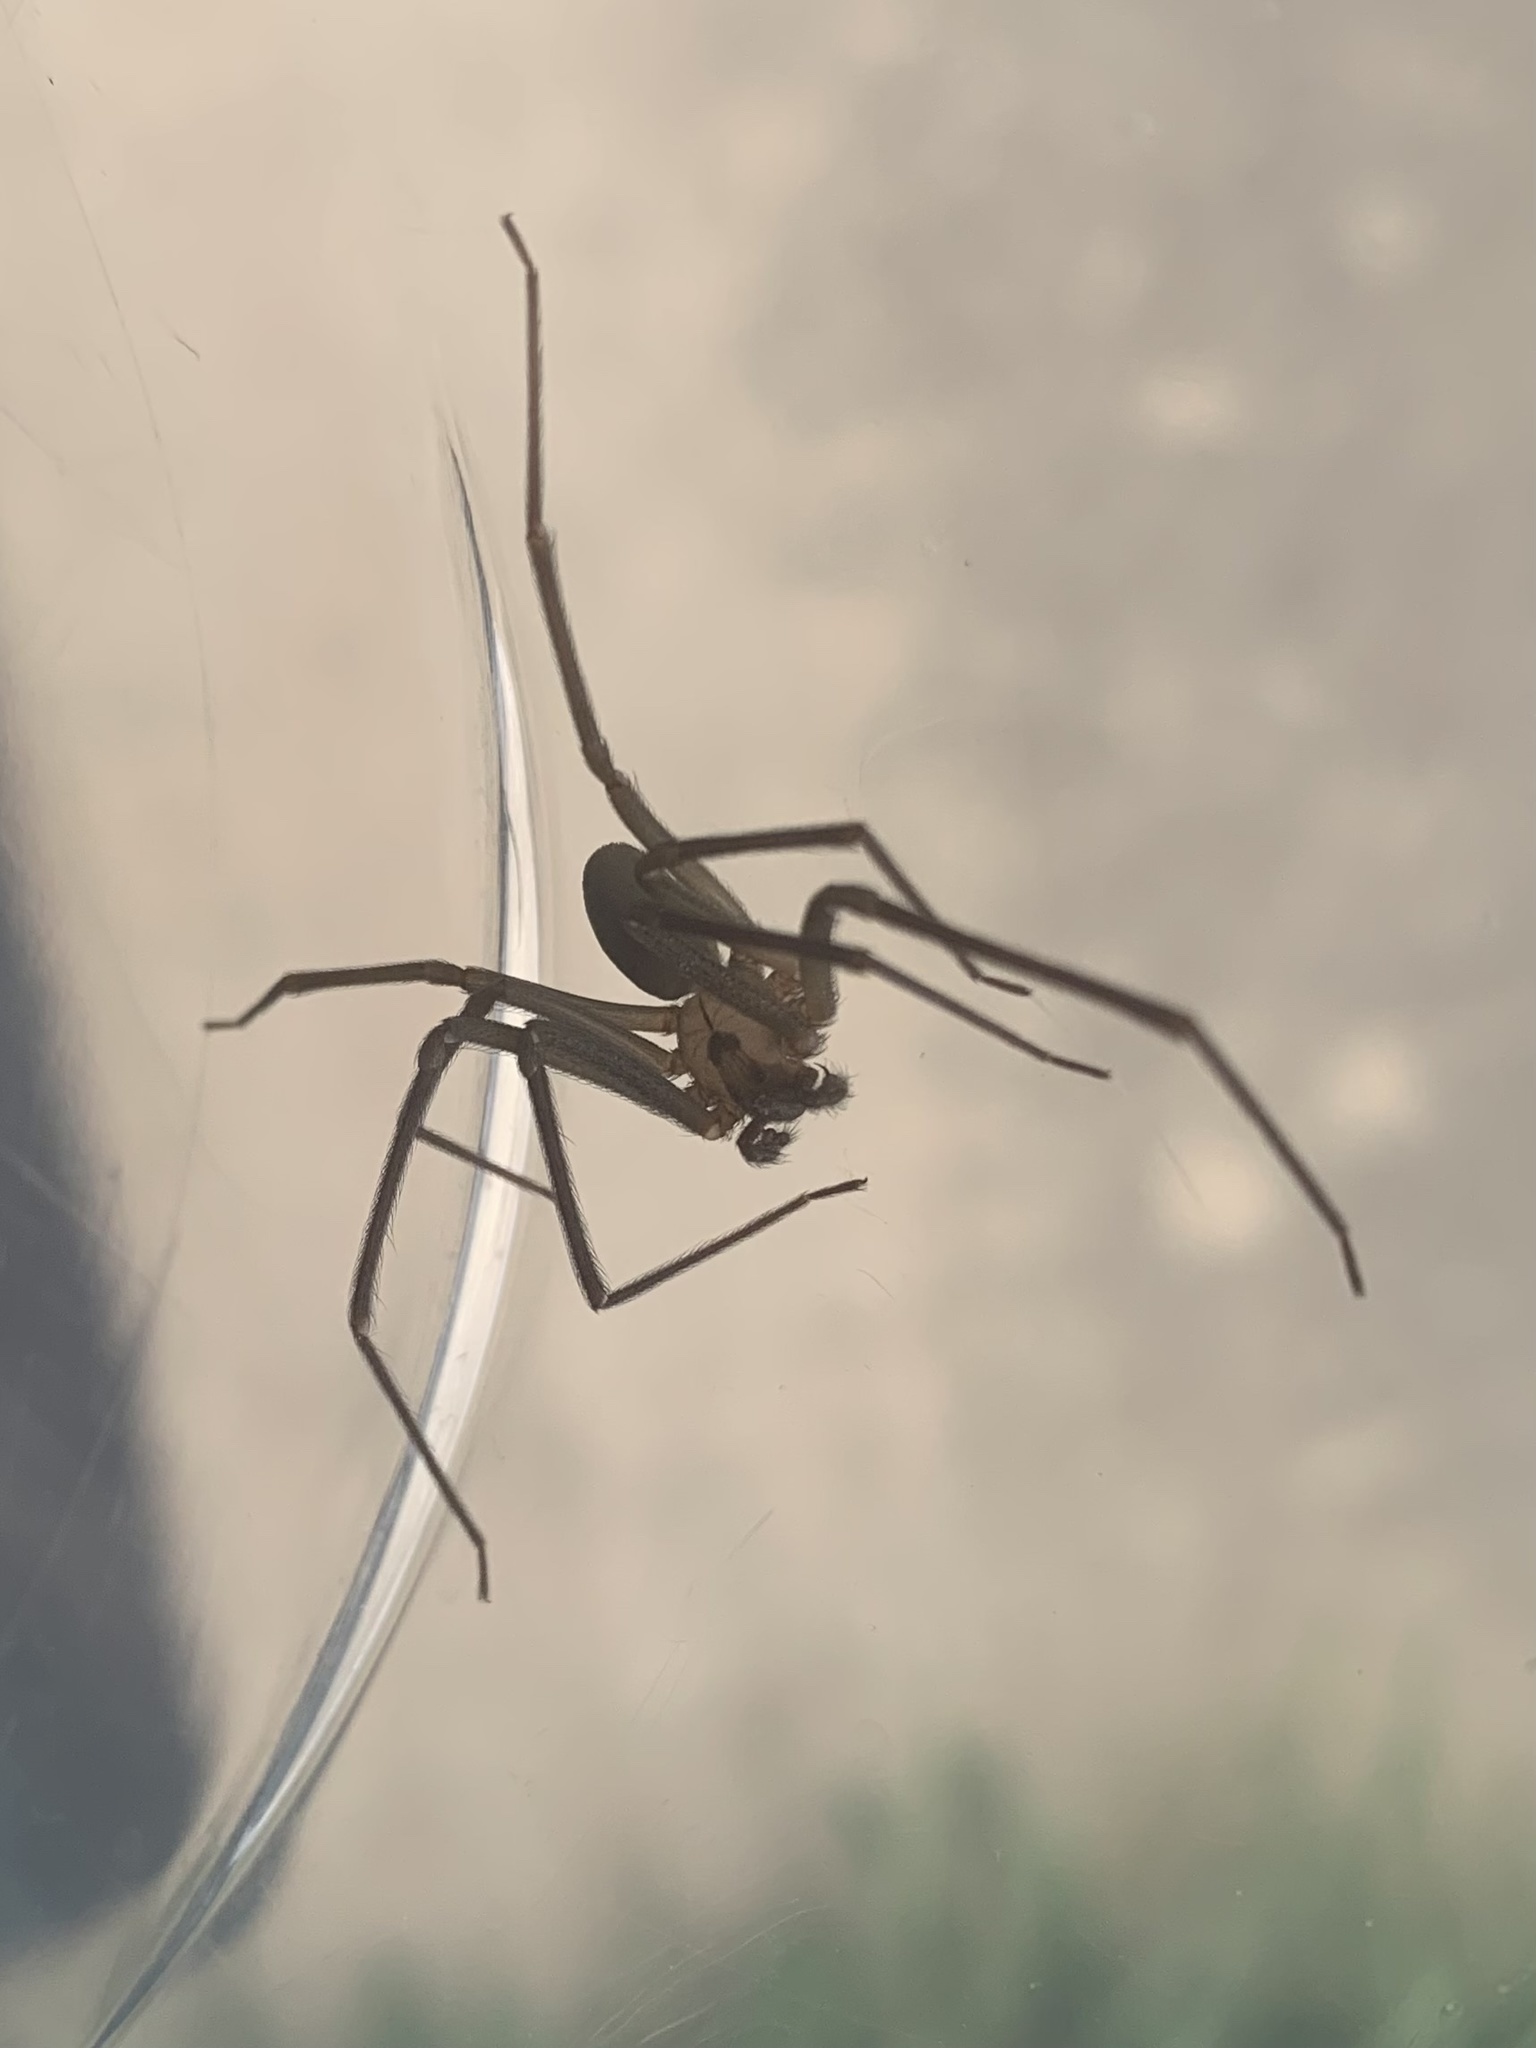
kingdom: Animalia
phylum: Arthropoda
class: Arachnida
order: Araneae
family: Sicariidae
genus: Loxosceles
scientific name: Loxosceles reclusa
